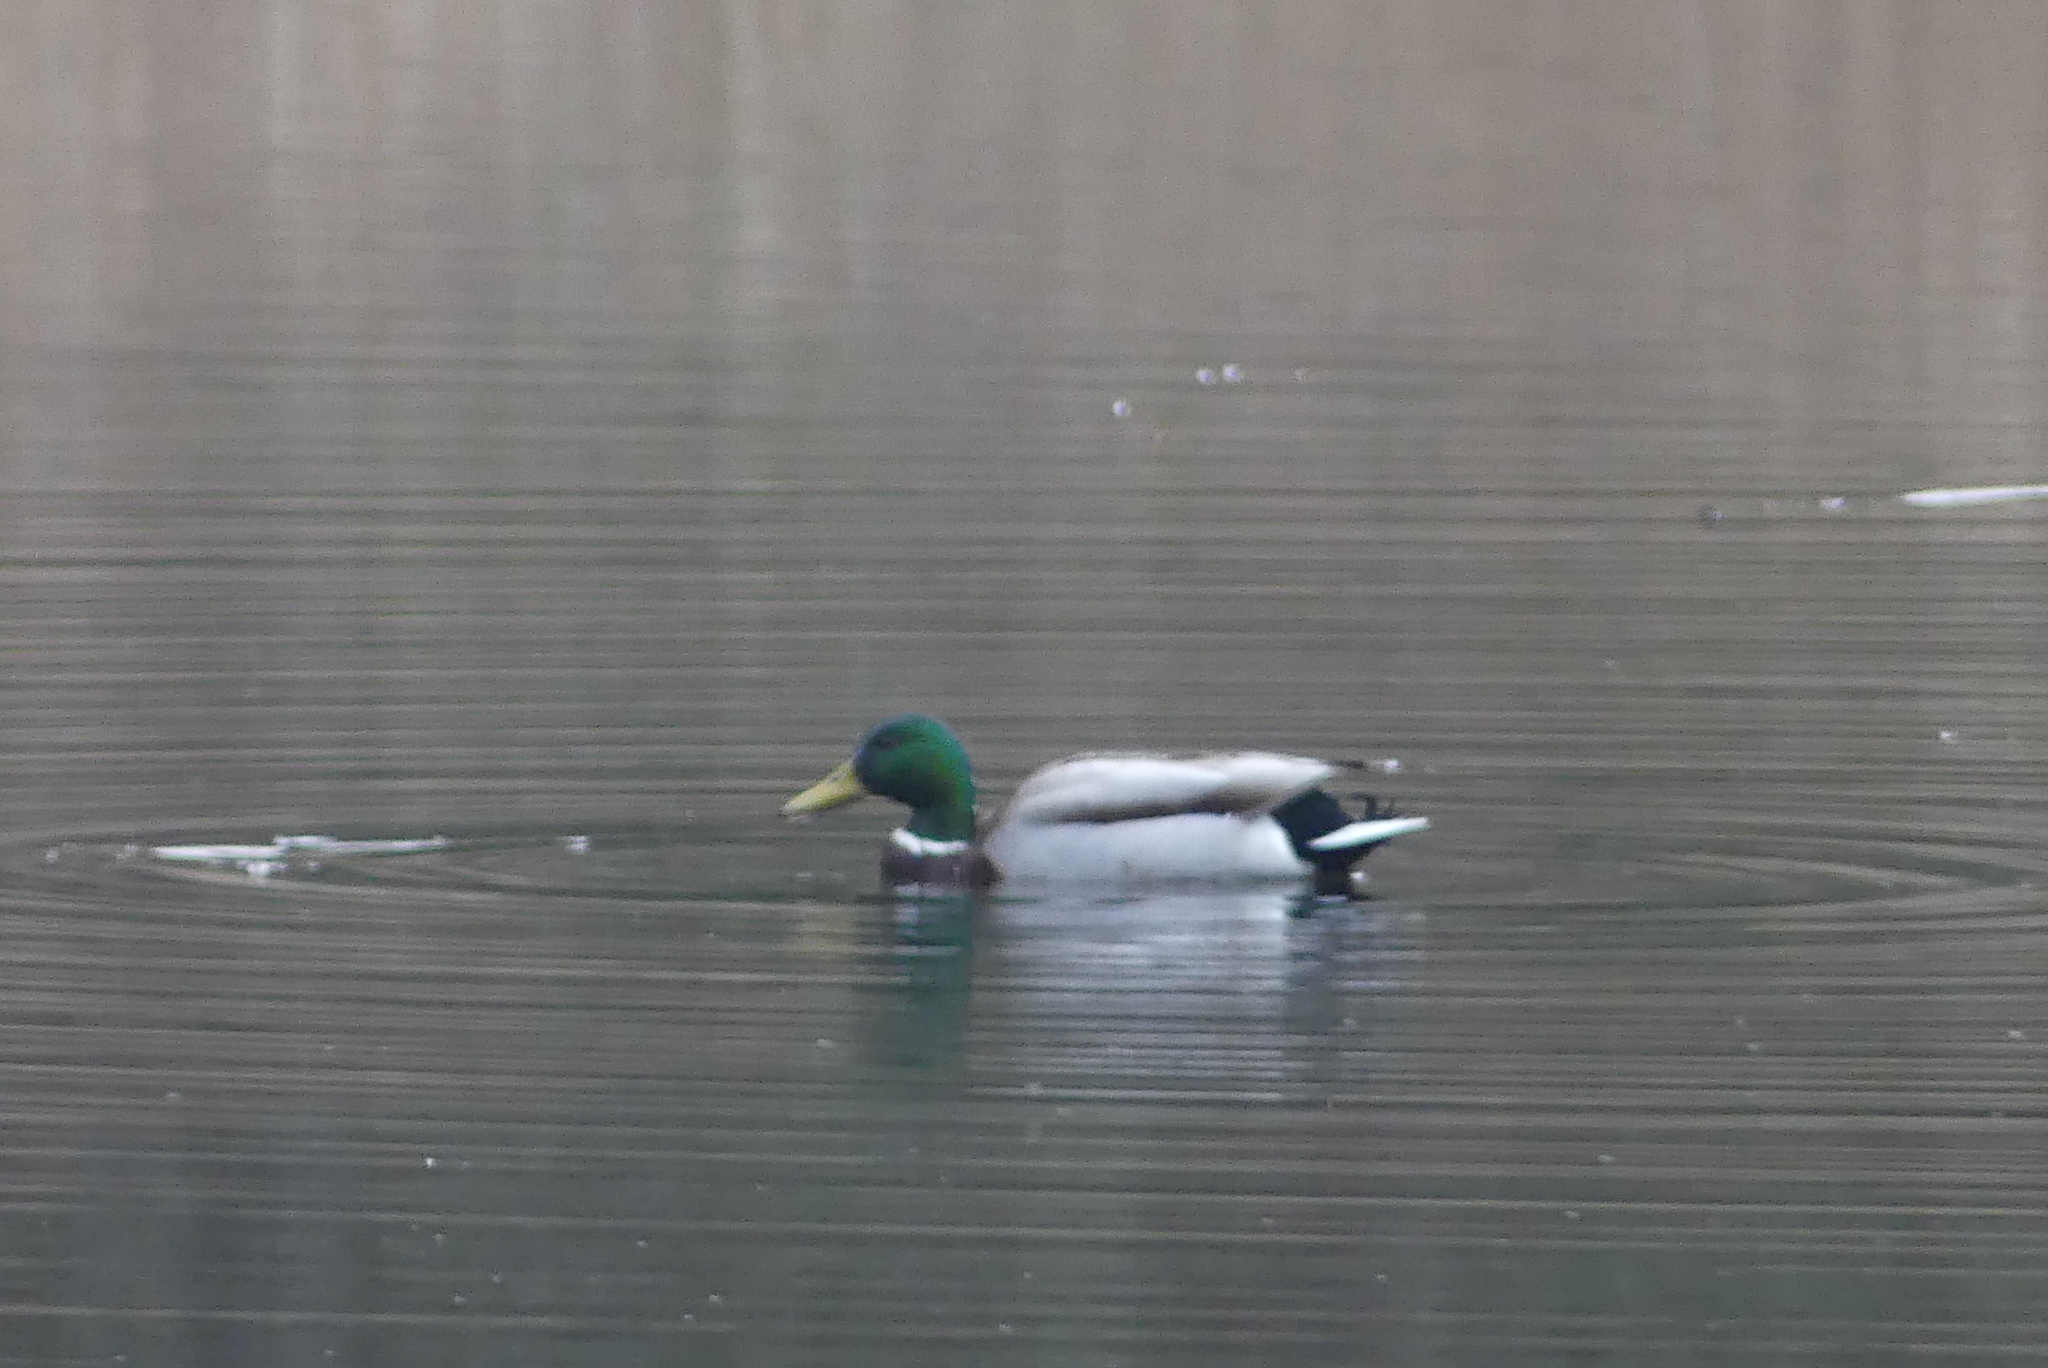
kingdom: Animalia
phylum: Chordata
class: Aves
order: Anseriformes
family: Anatidae
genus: Anas
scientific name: Anas platyrhynchos
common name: Mallard
